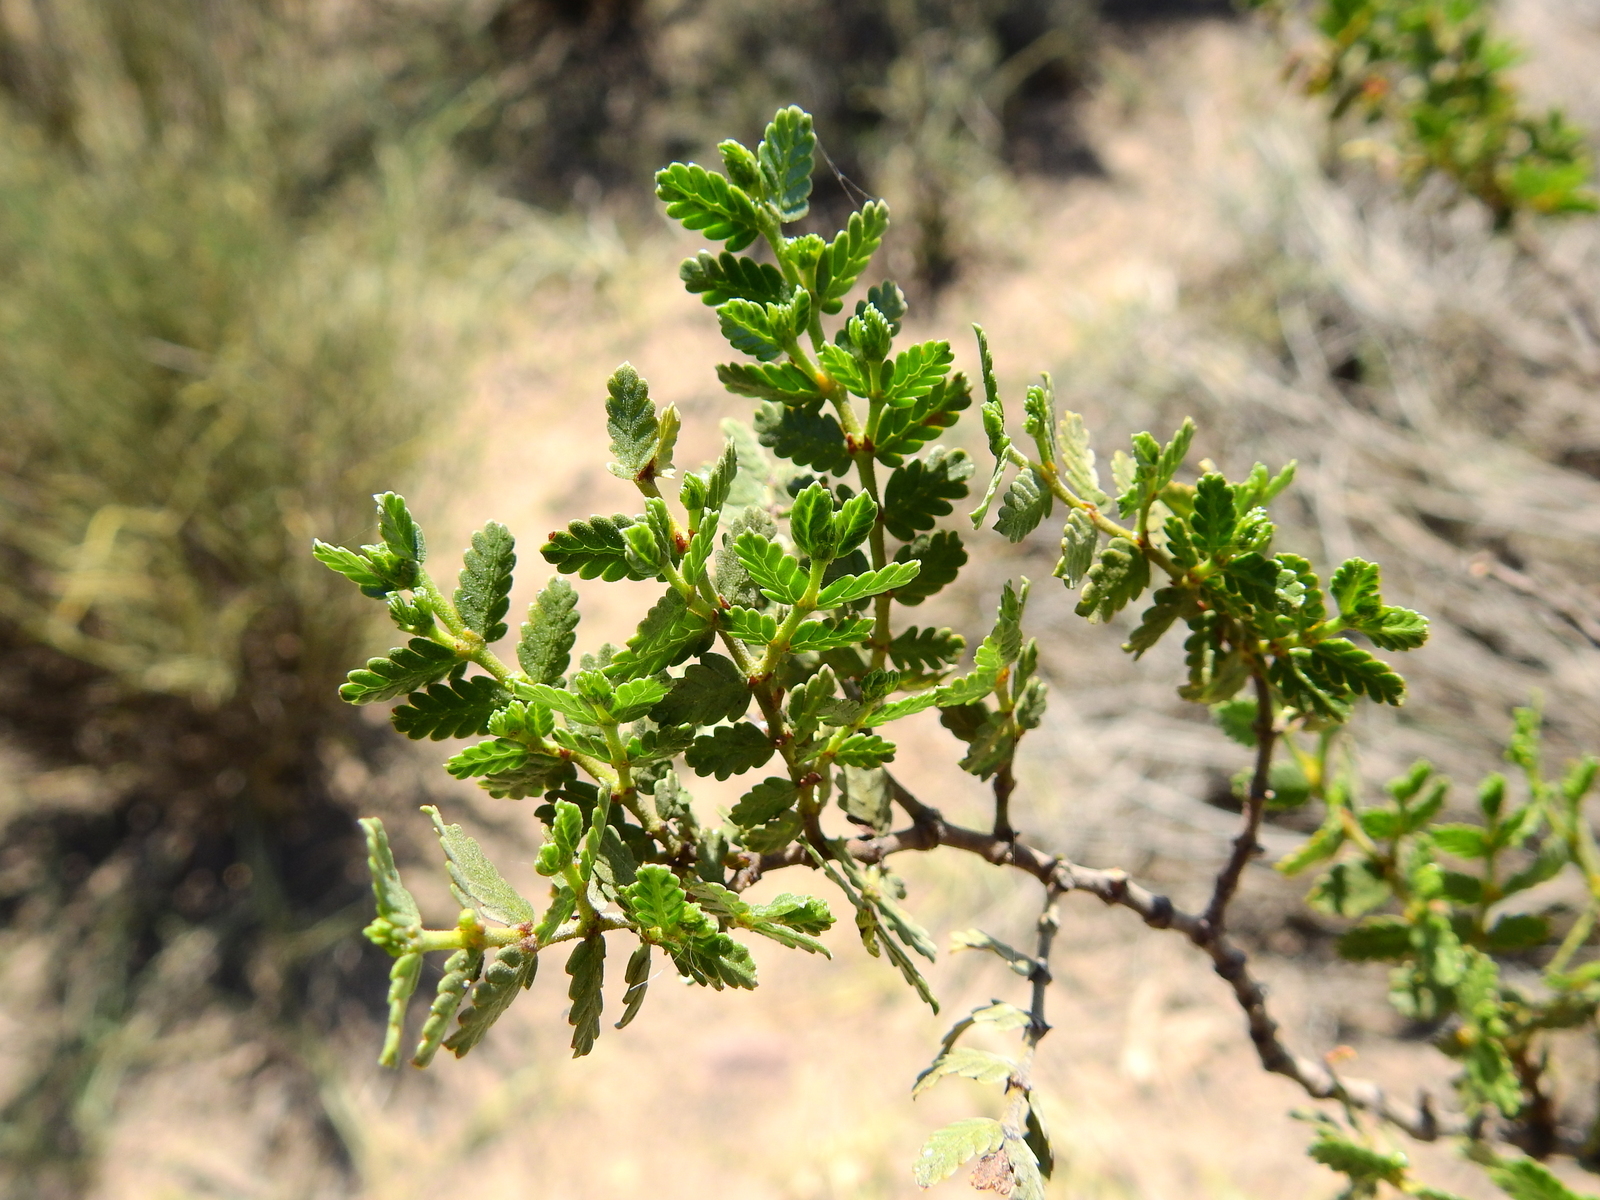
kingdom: Plantae
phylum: Tracheophyta
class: Magnoliopsida
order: Zygophyllales
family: Zygophyllaceae
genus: Larrea
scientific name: Larrea nitida
